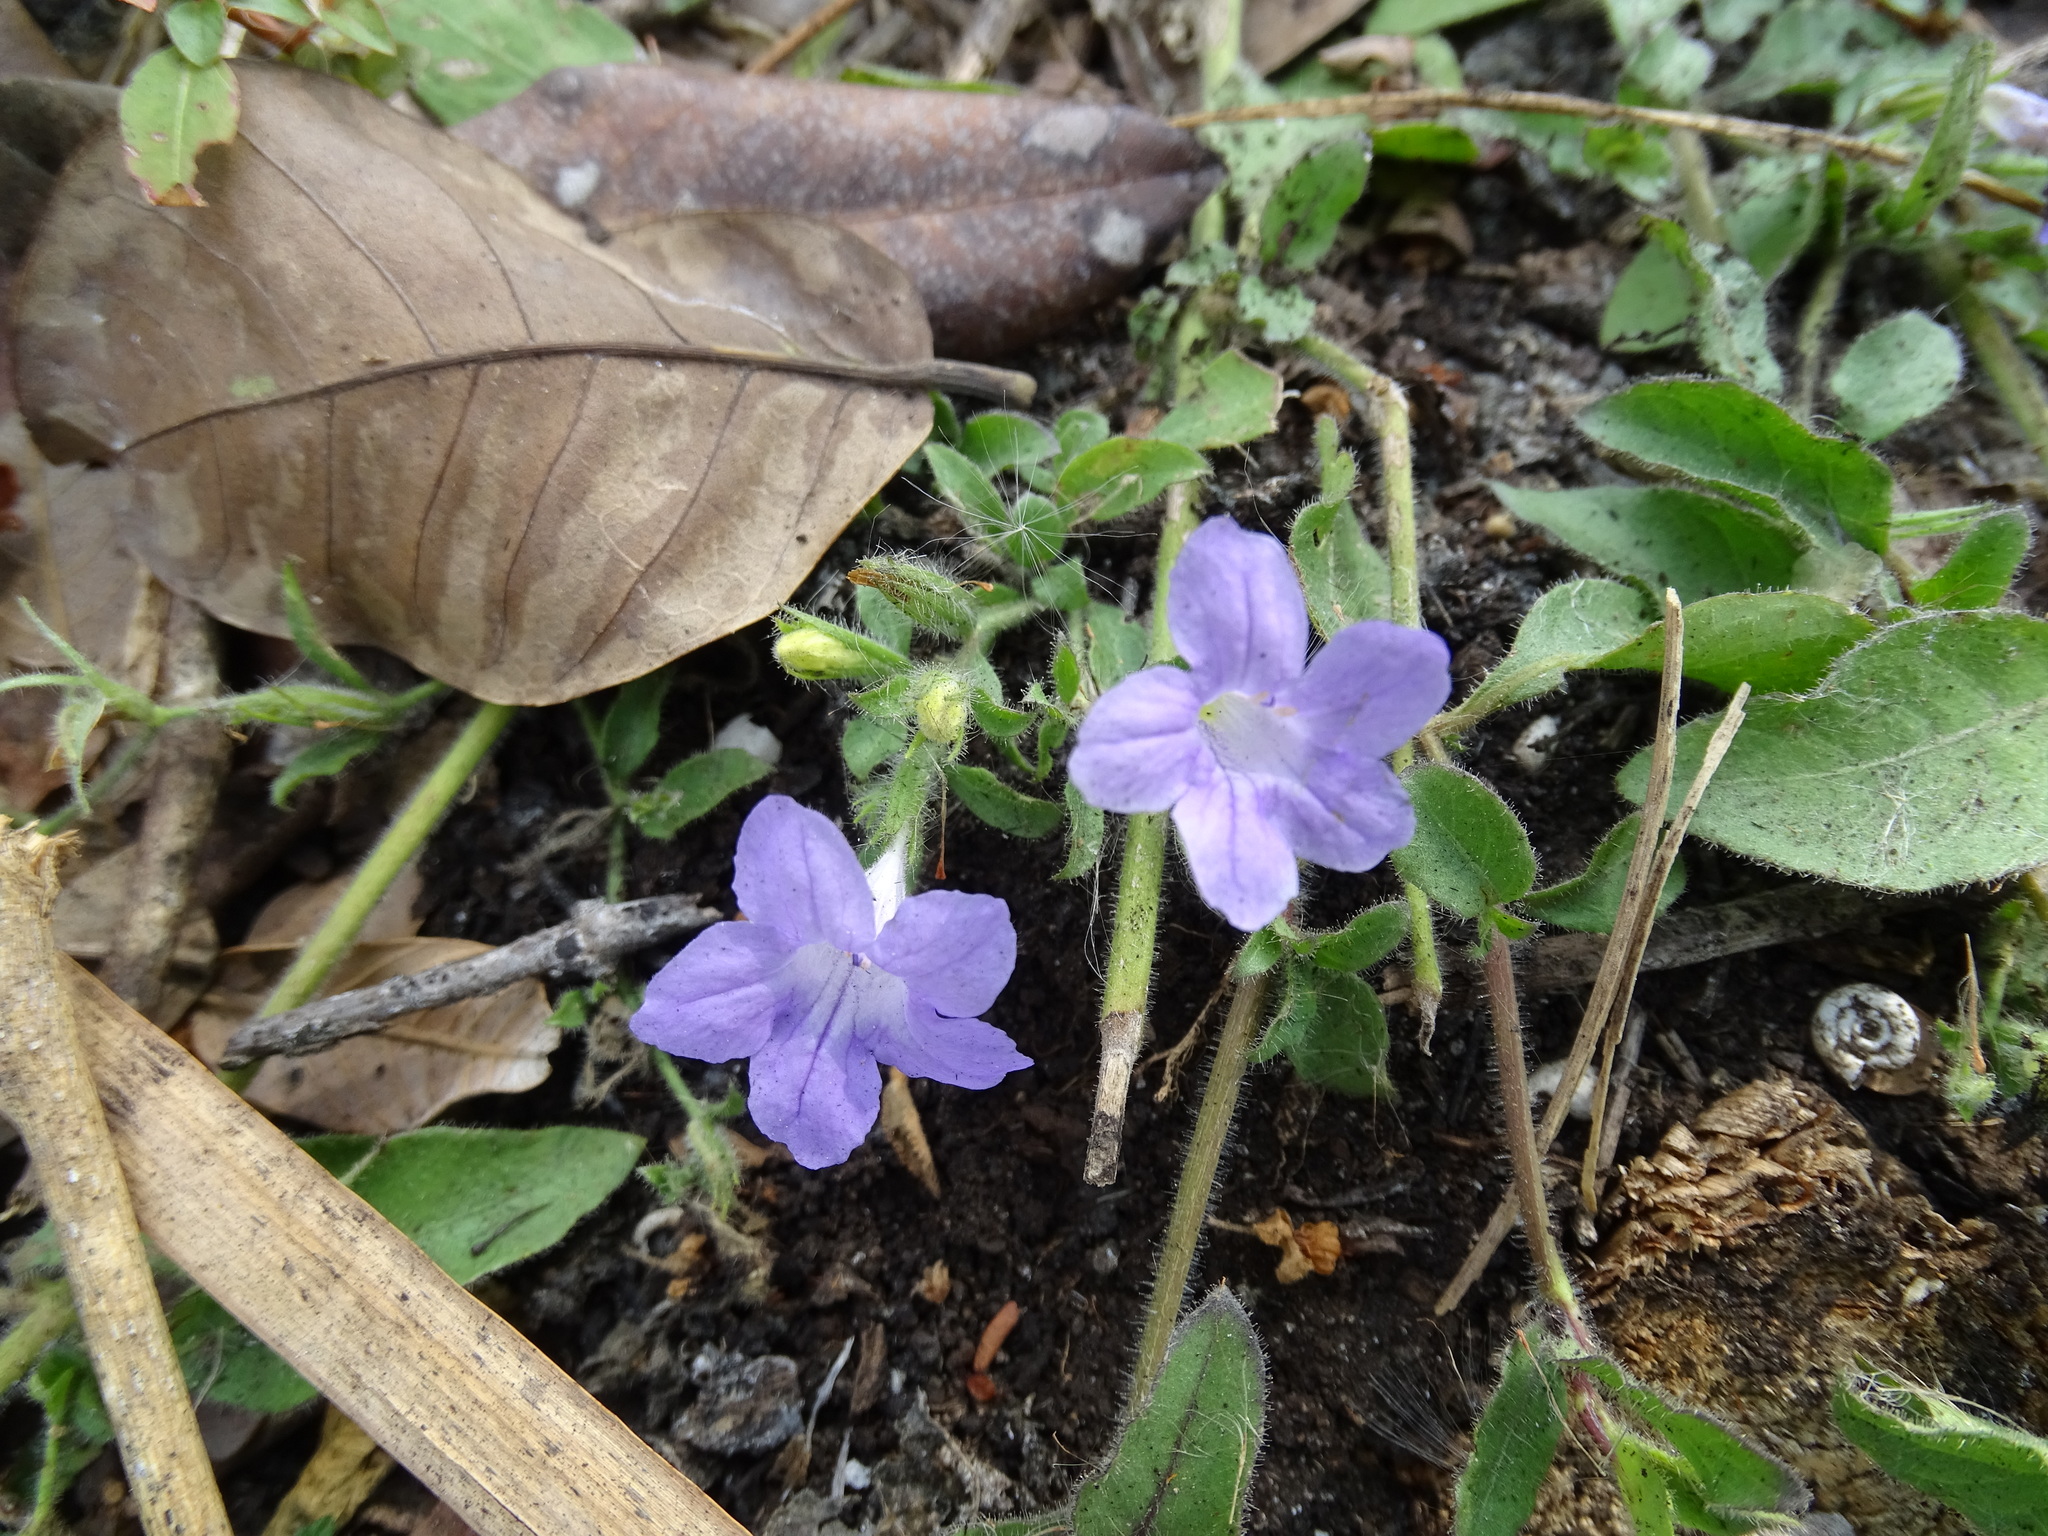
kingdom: Plantae
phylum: Tracheophyta
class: Magnoliopsida
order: Lamiales
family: Acanthaceae
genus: Ruellia
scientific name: Ruellia paniculata
